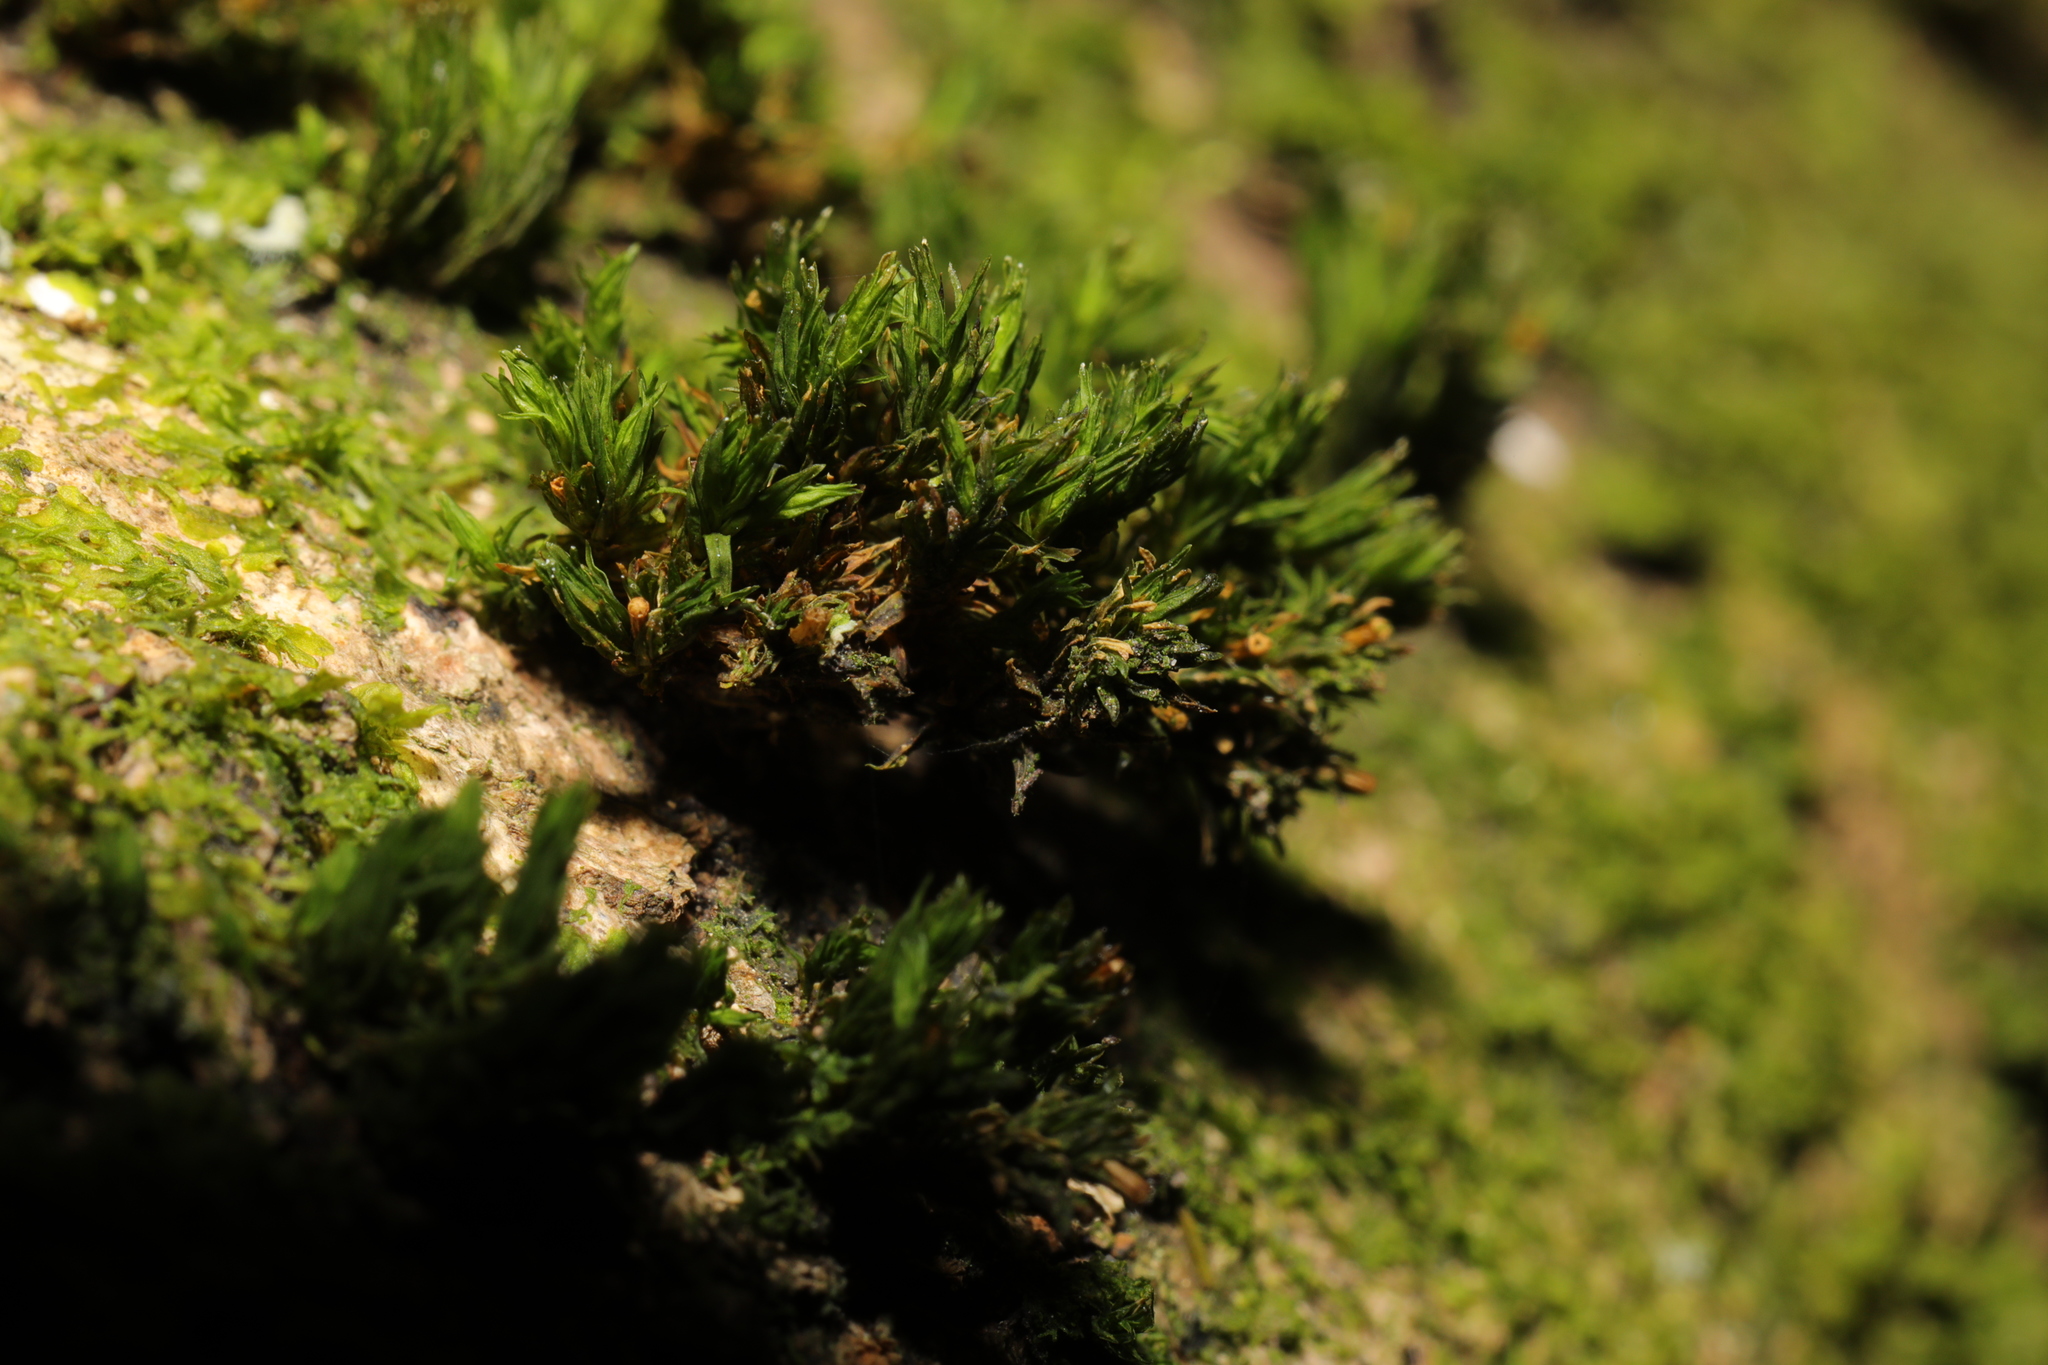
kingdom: Plantae
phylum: Bryophyta
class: Bryopsida
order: Orthotrichales
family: Orthotrichaceae
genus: Lewinskya
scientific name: Lewinskya affinis
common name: Wood bristle-moss
